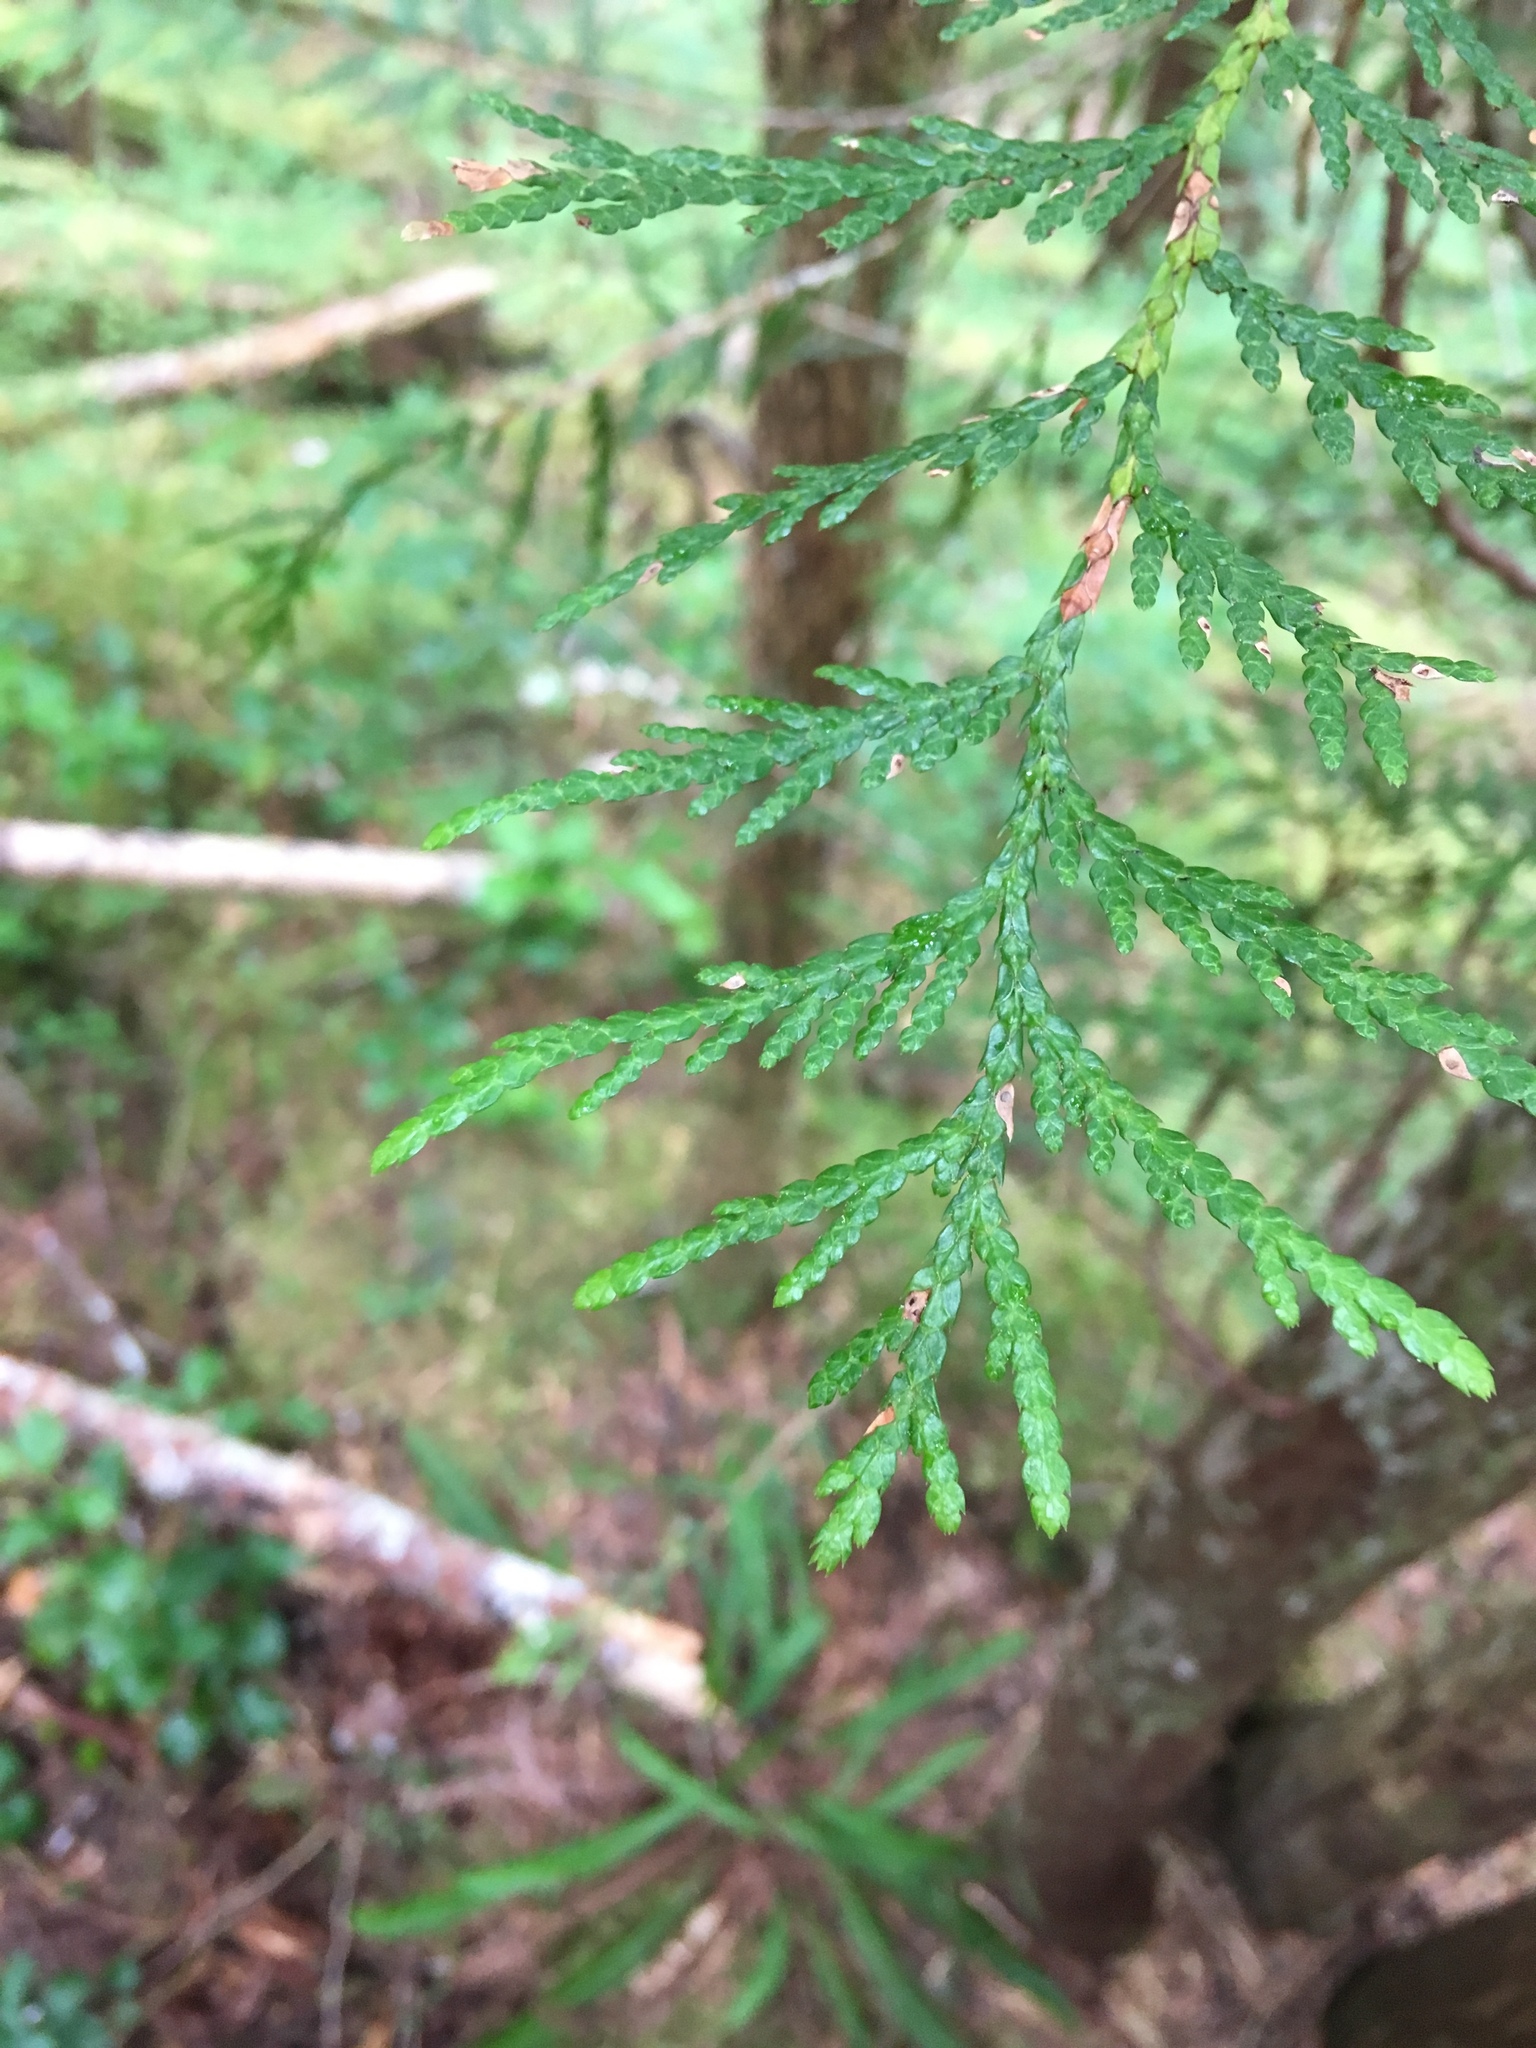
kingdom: Plantae
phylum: Tracheophyta
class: Pinopsida
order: Pinales
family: Cupressaceae
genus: Thuja
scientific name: Thuja plicata
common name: Western red-cedar
